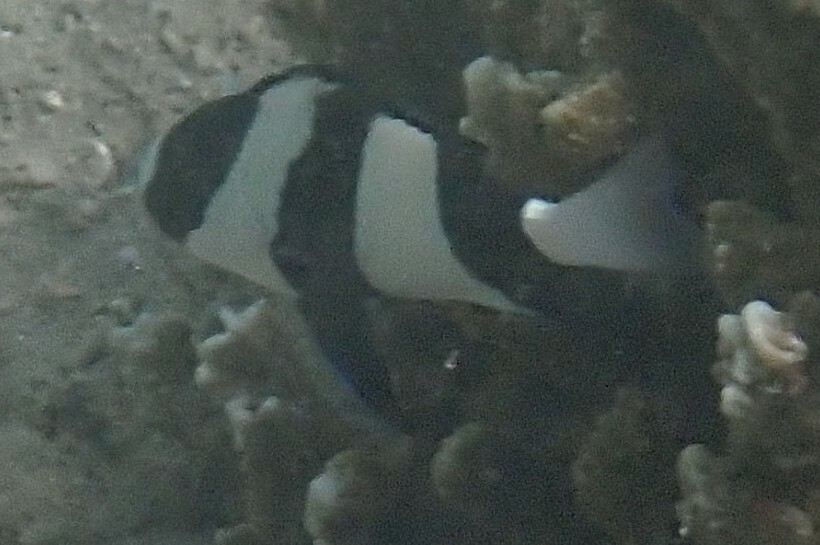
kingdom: Animalia
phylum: Chordata
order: Perciformes
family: Pomacentridae
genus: Dascyllus
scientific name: Dascyllus aruanus
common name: Humbug dascyllus
